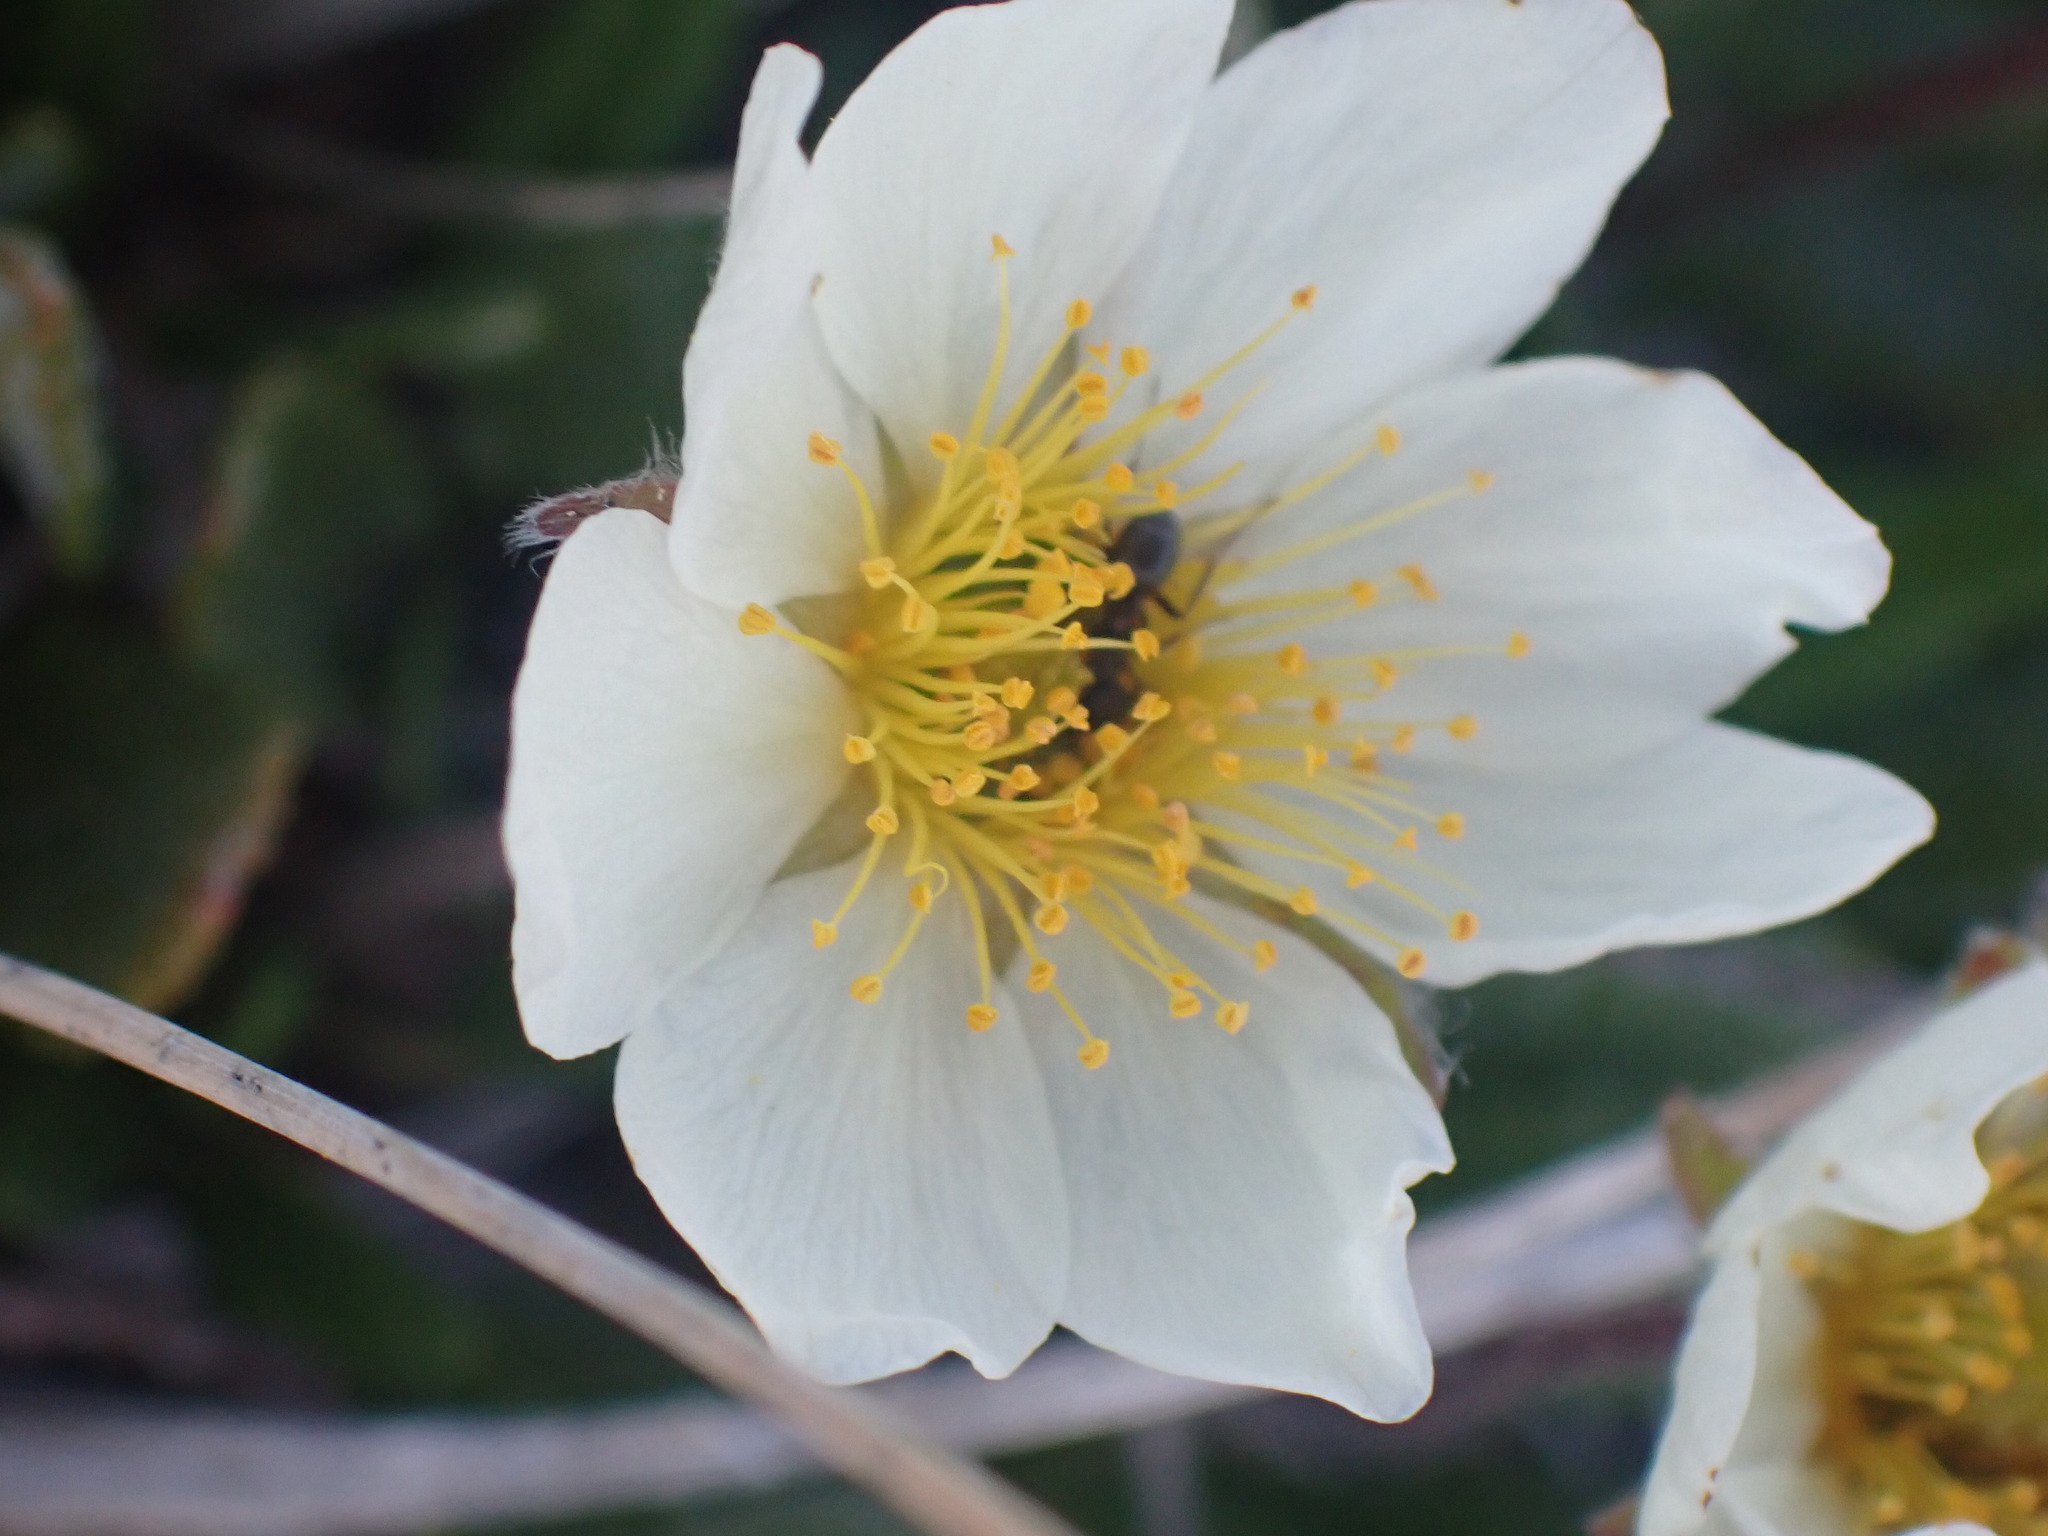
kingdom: Plantae
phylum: Tracheophyta
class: Magnoliopsida
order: Rosales
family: Rosaceae
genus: Dryas
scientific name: Dryas octopetala
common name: Eight-petal mountain-avens
